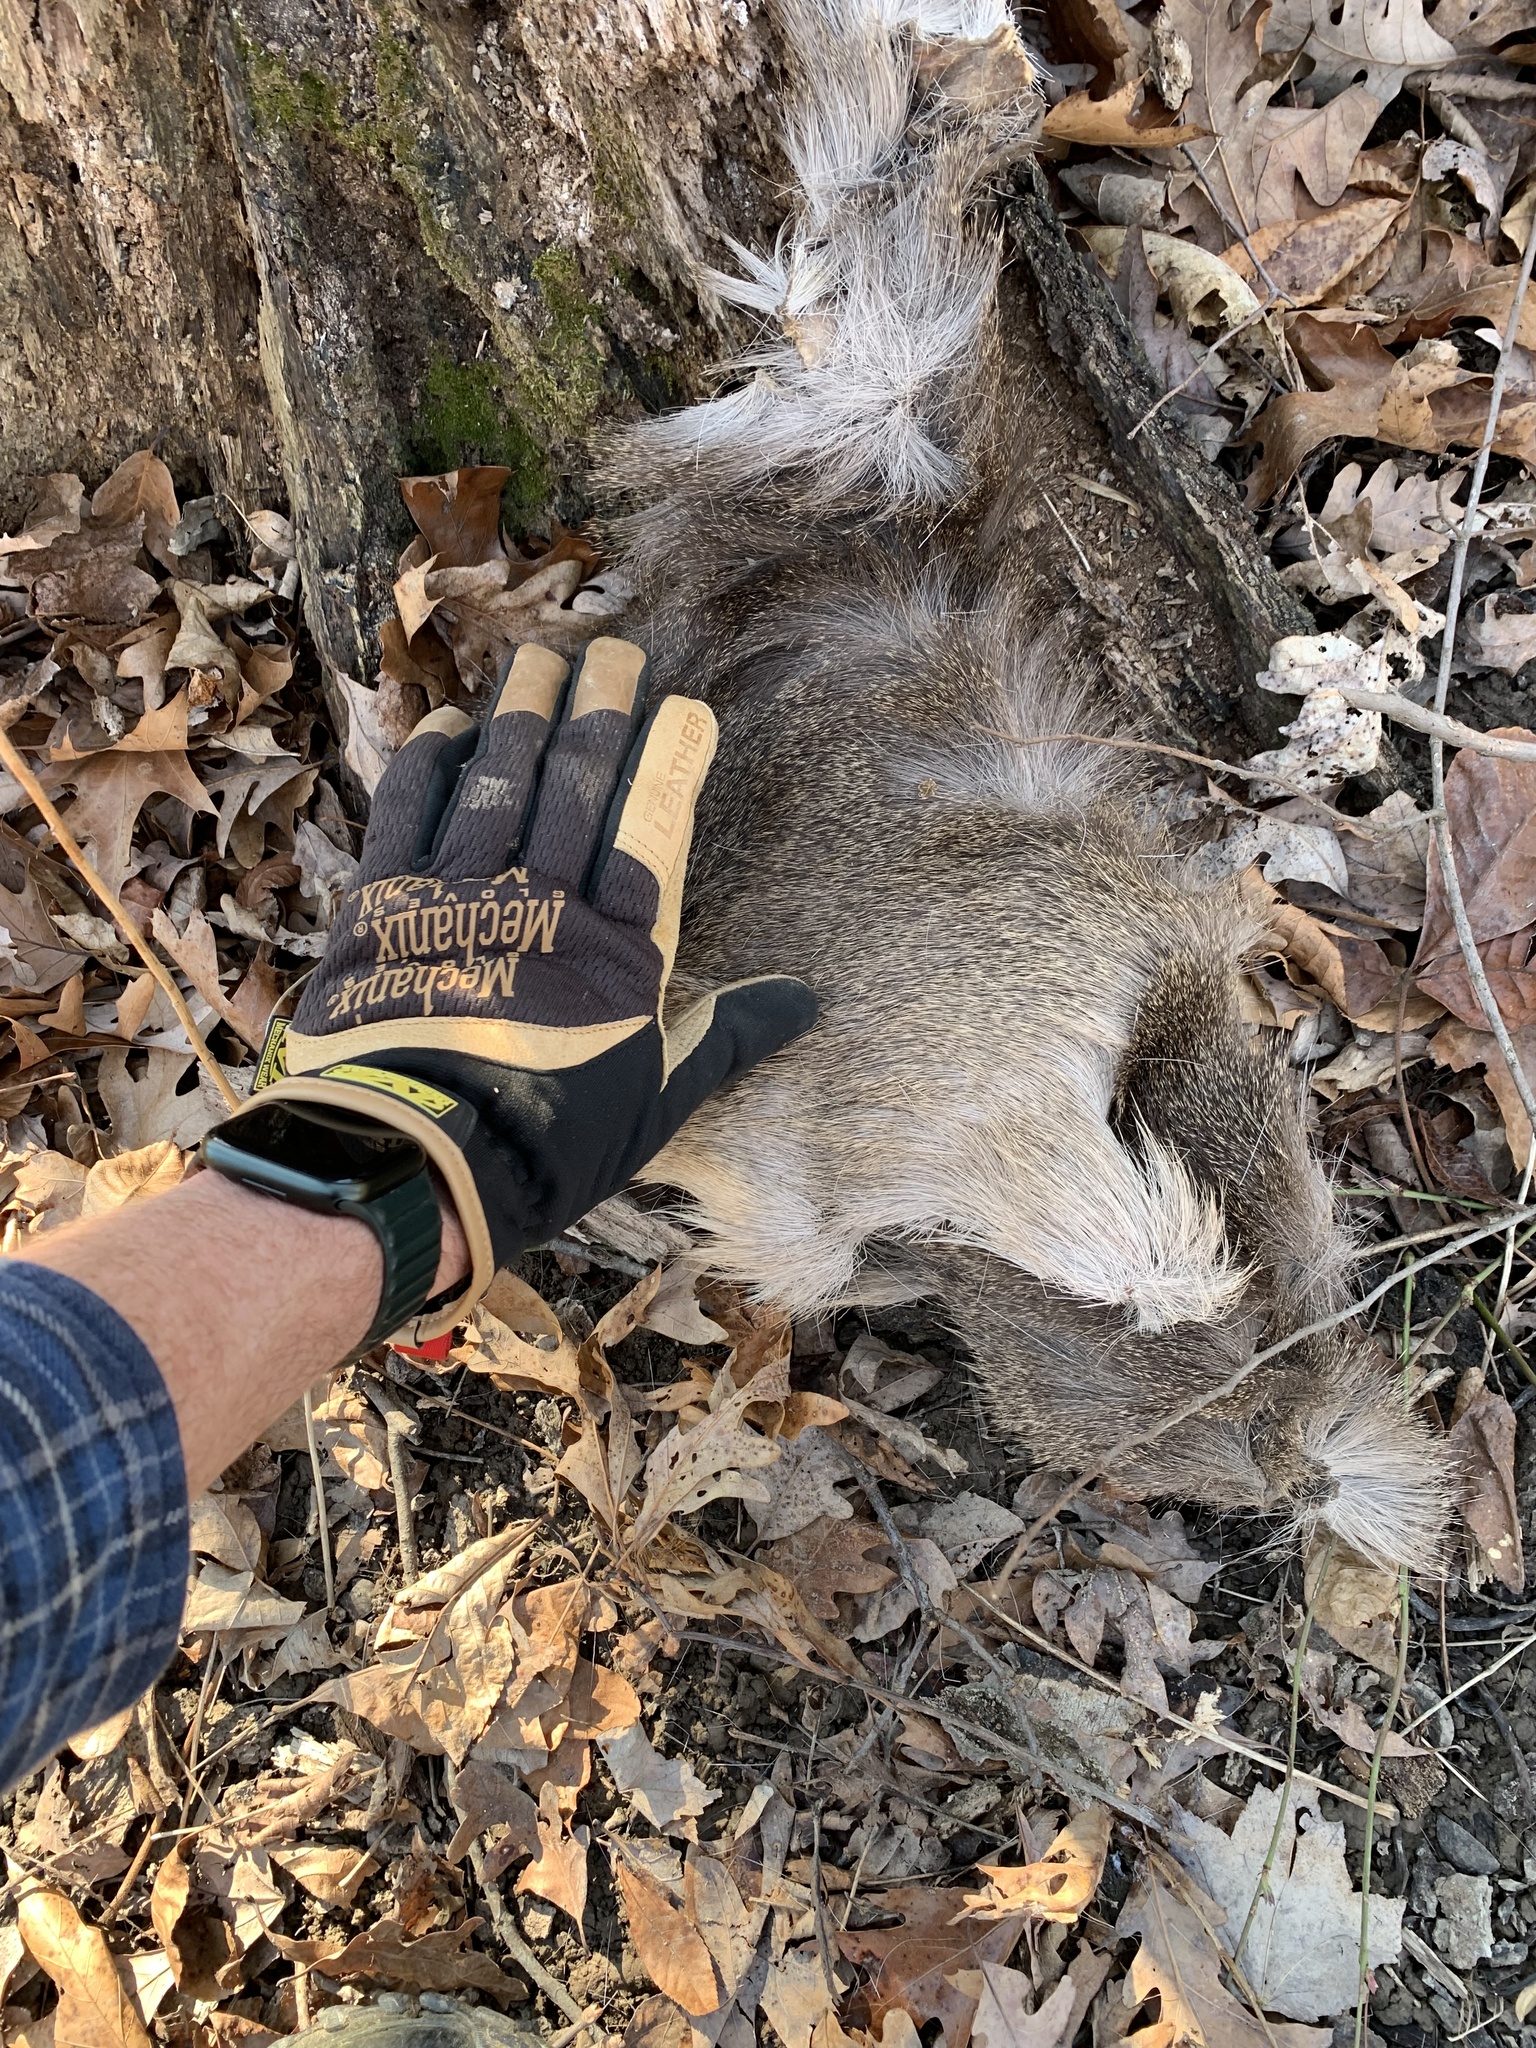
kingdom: Animalia
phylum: Chordata
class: Mammalia
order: Artiodactyla
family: Cervidae
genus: Odocoileus
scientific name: Odocoileus virginianus
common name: White-tailed deer
